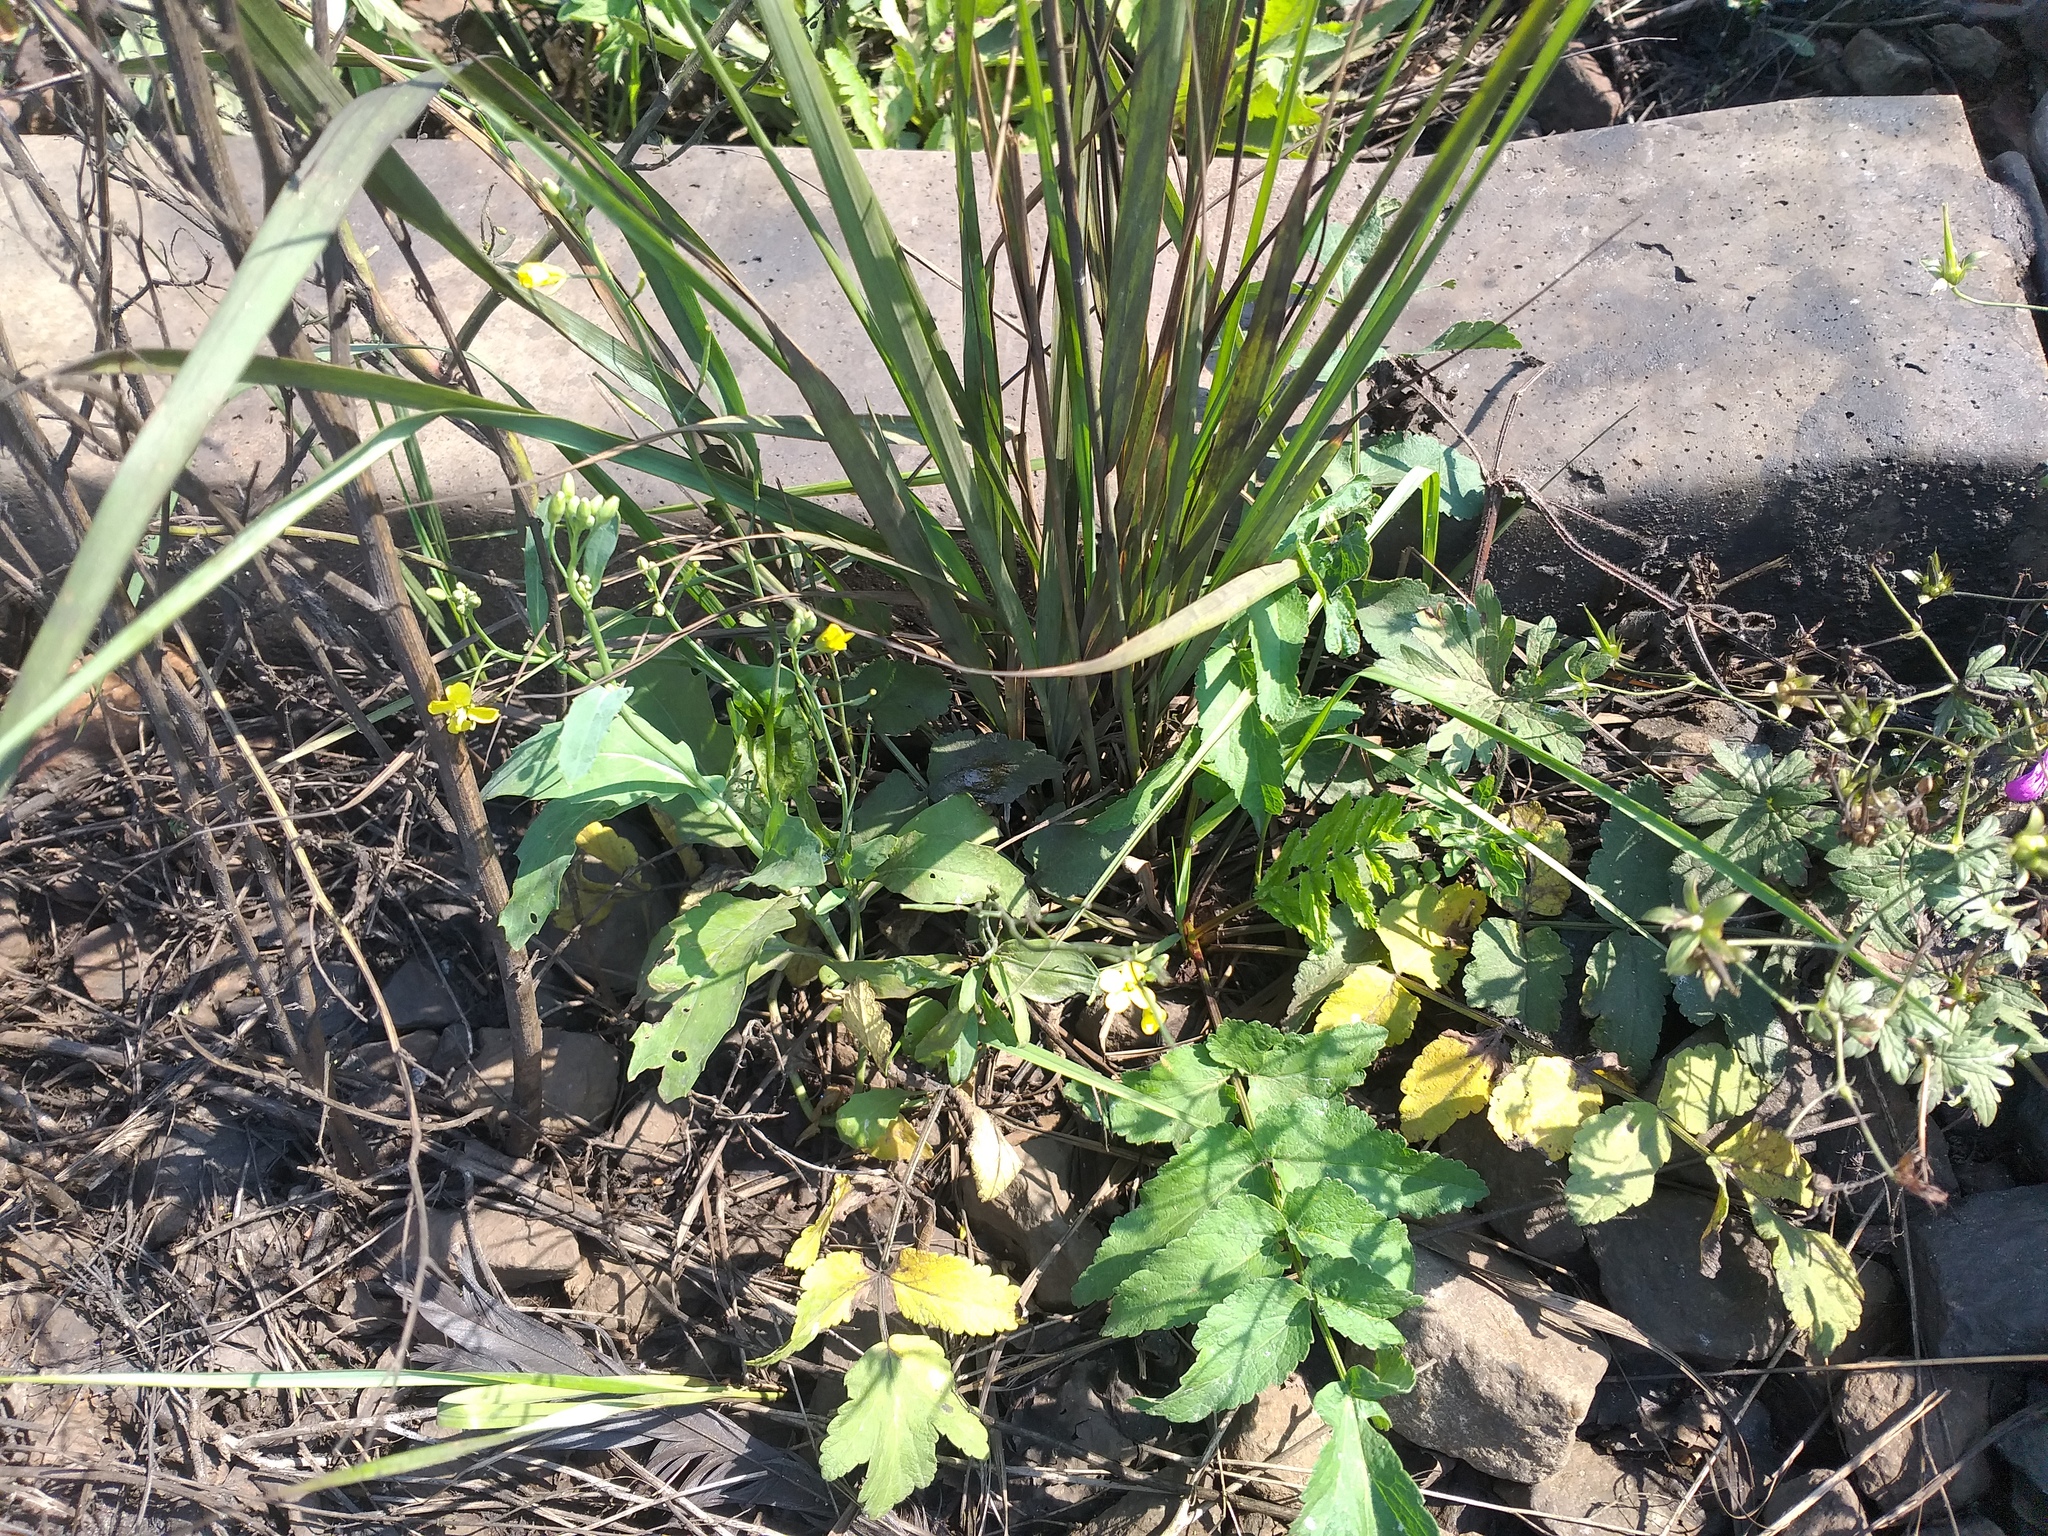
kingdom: Plantae
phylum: Tracheophyta
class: Magnoliopsida
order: Apiales
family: Apiaceae
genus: Pastinaca
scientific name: Pastinaca sativa
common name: Wild parsnip
